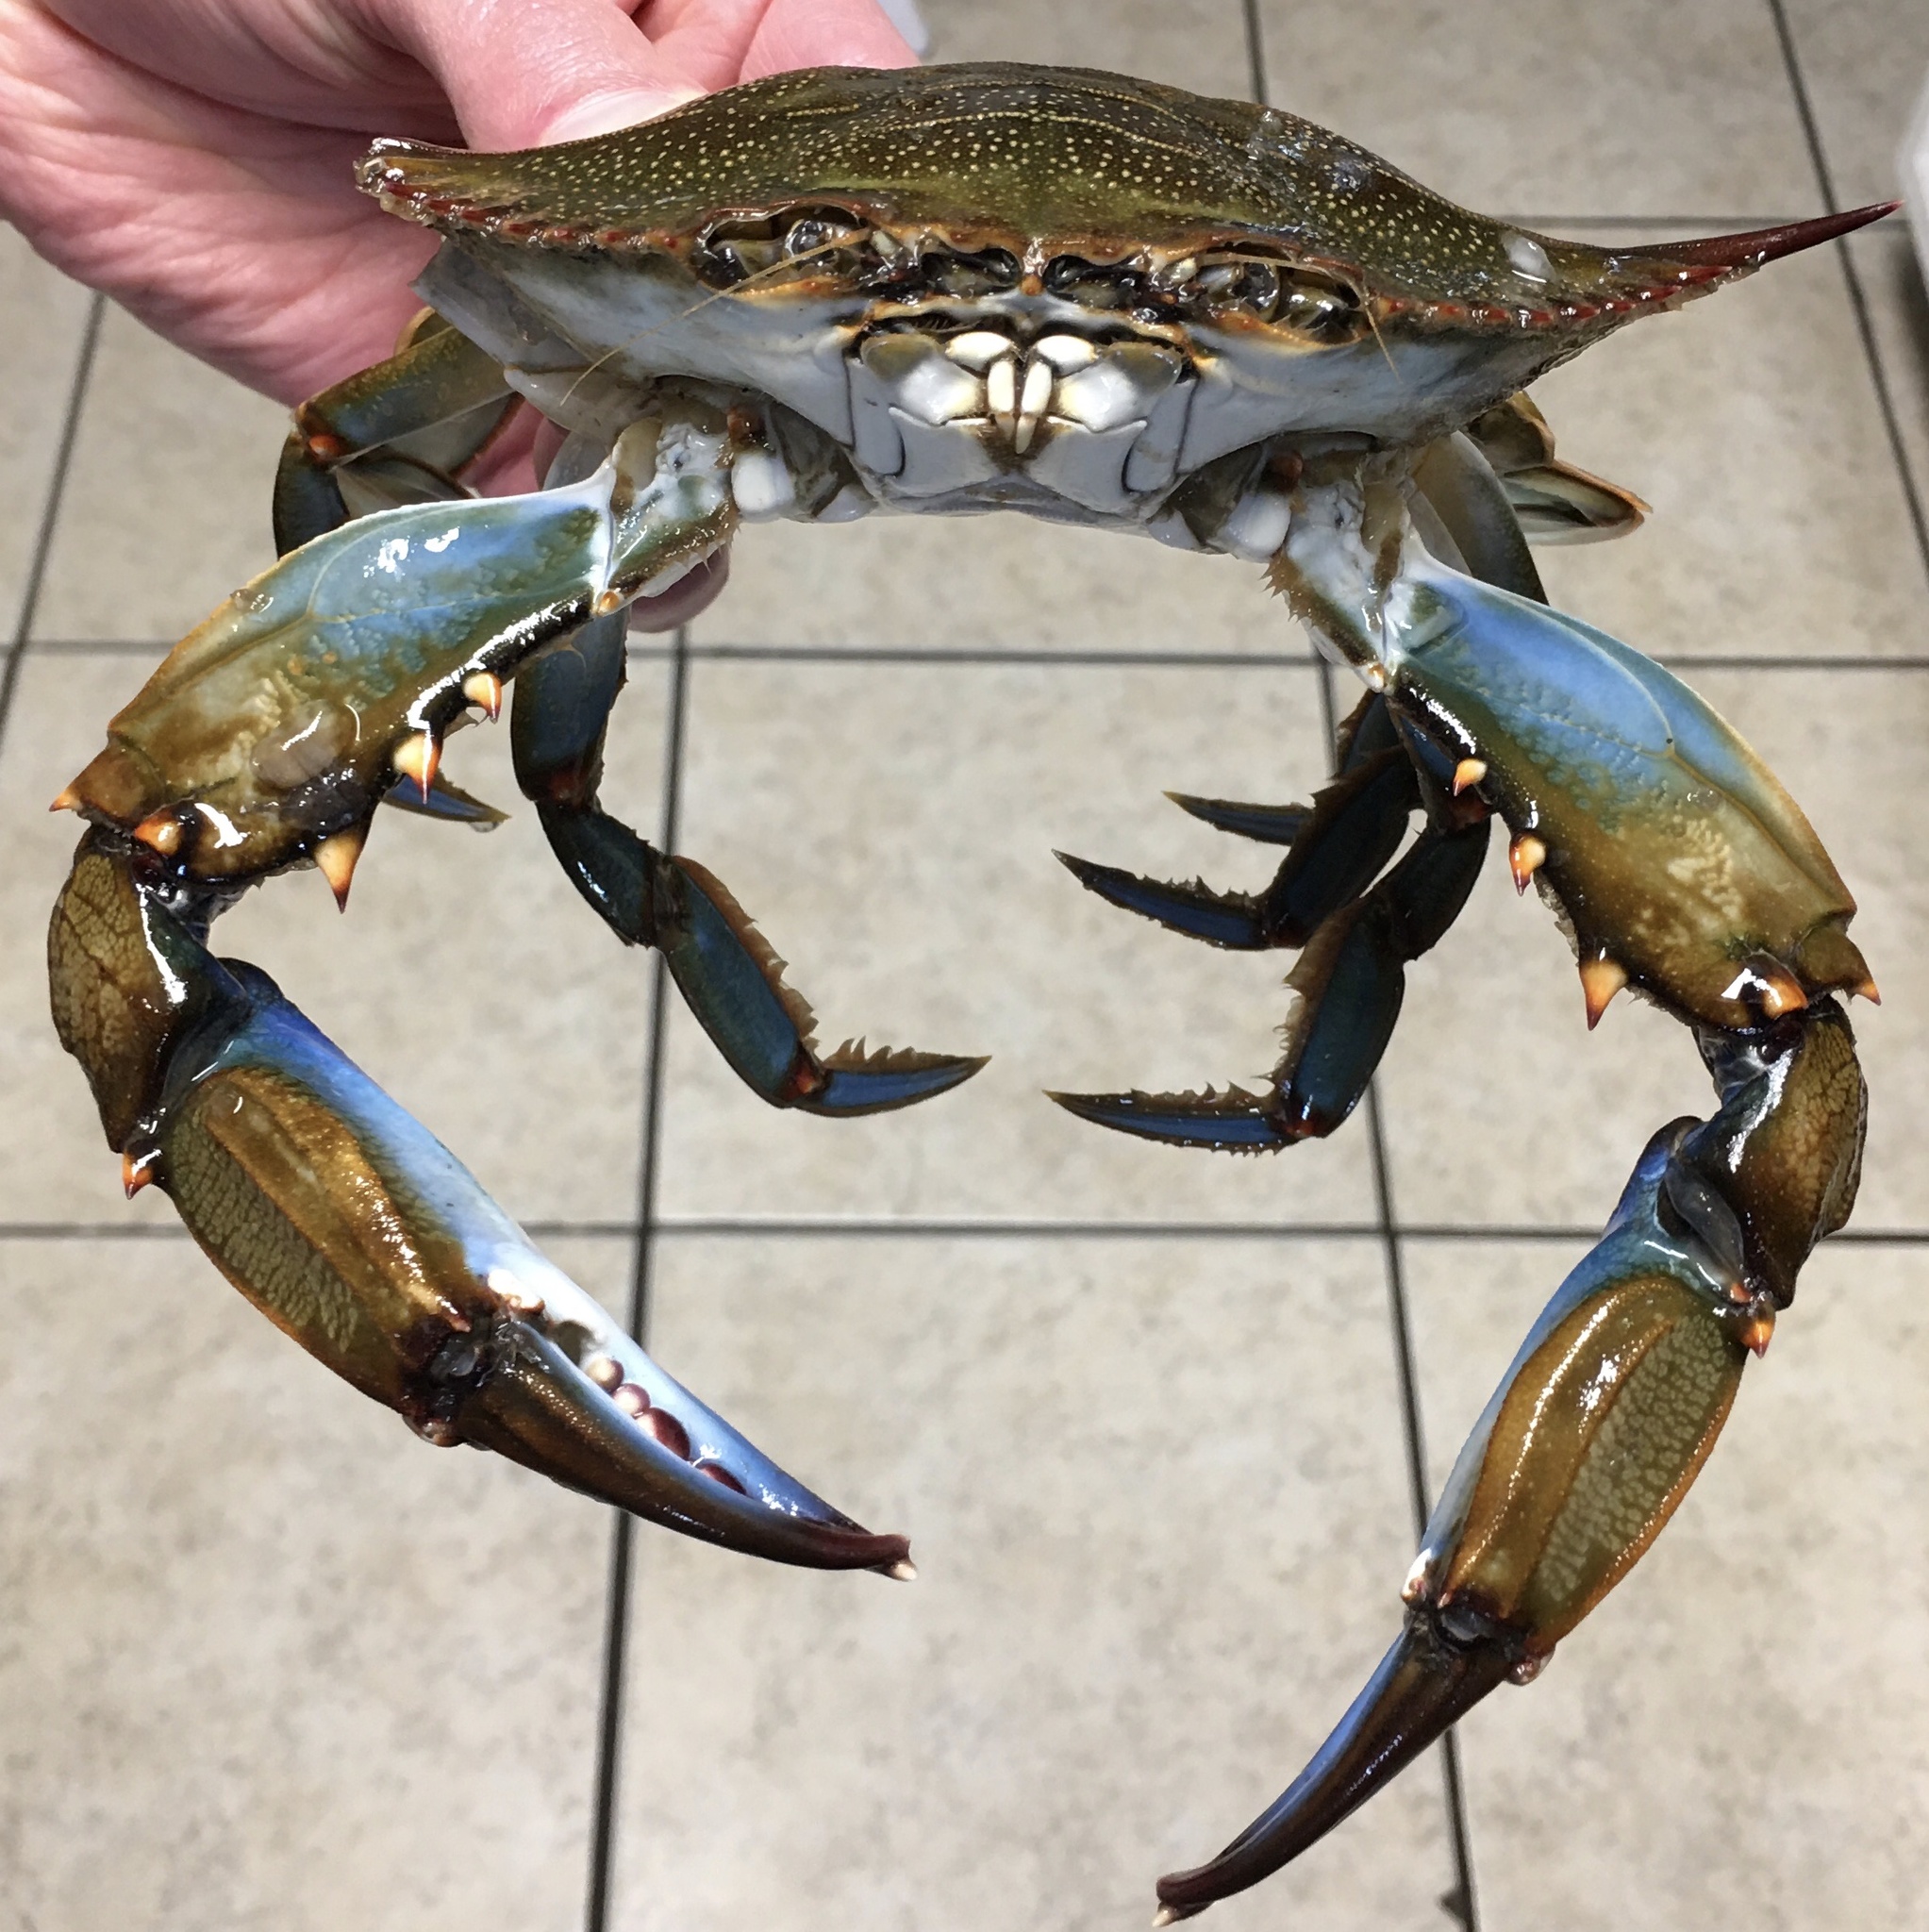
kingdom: Animalia
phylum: Arthropoda
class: Malacostraca
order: Decapoda
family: Portunidae
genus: Callinectes
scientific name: Callinectes sapidus
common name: Blue crab
